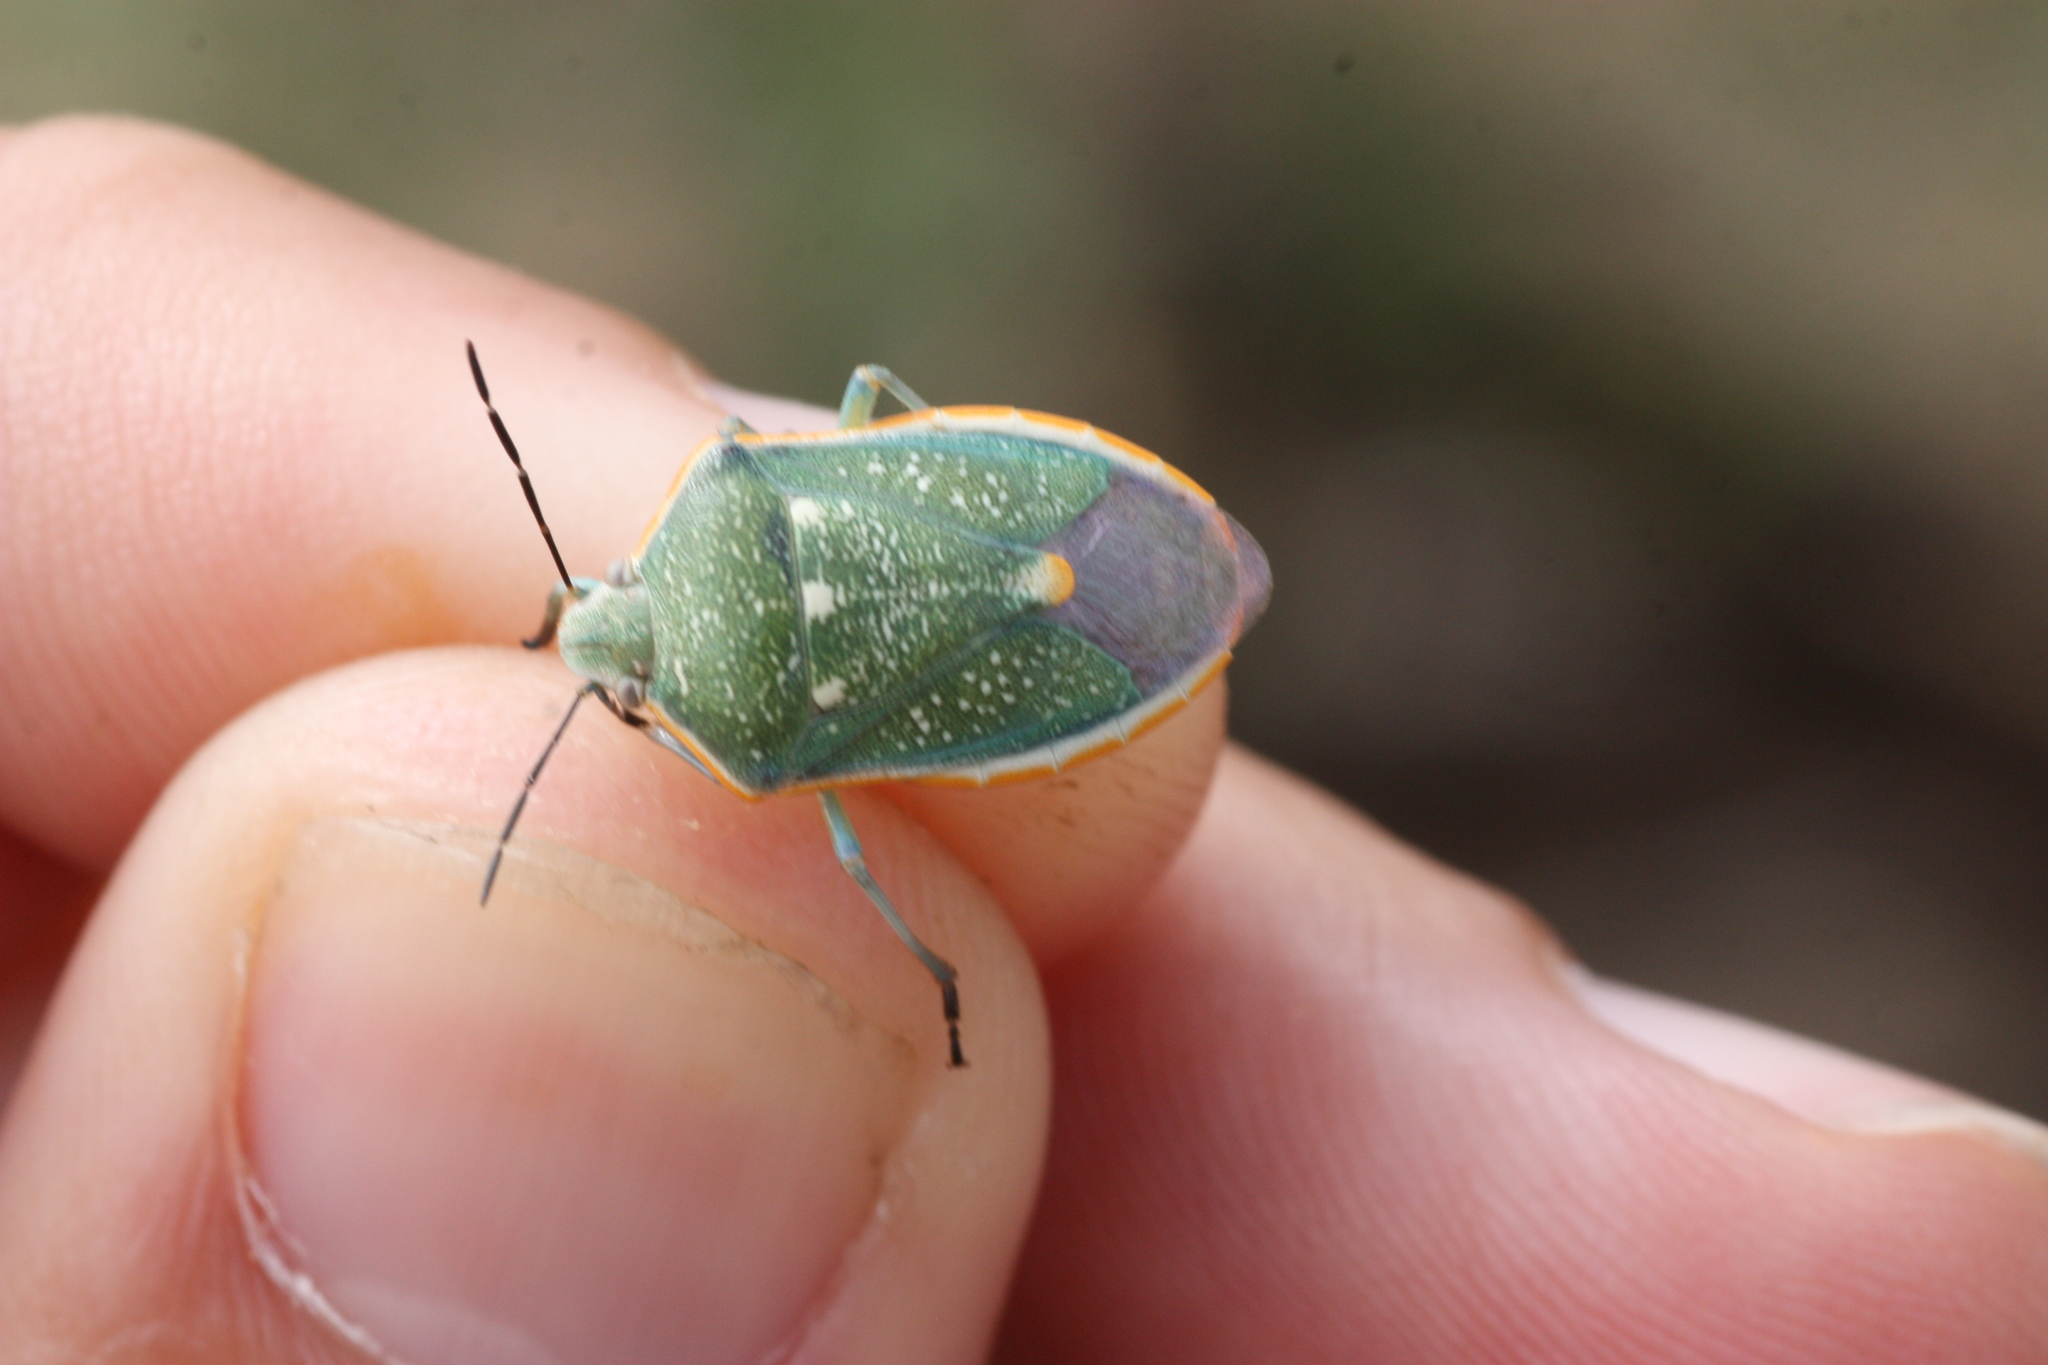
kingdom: Animalia
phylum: Arthropoda
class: Insecta
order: Hemiptera
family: Pentatomidae
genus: Chlorochroa
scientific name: Chlorochroa sayi
